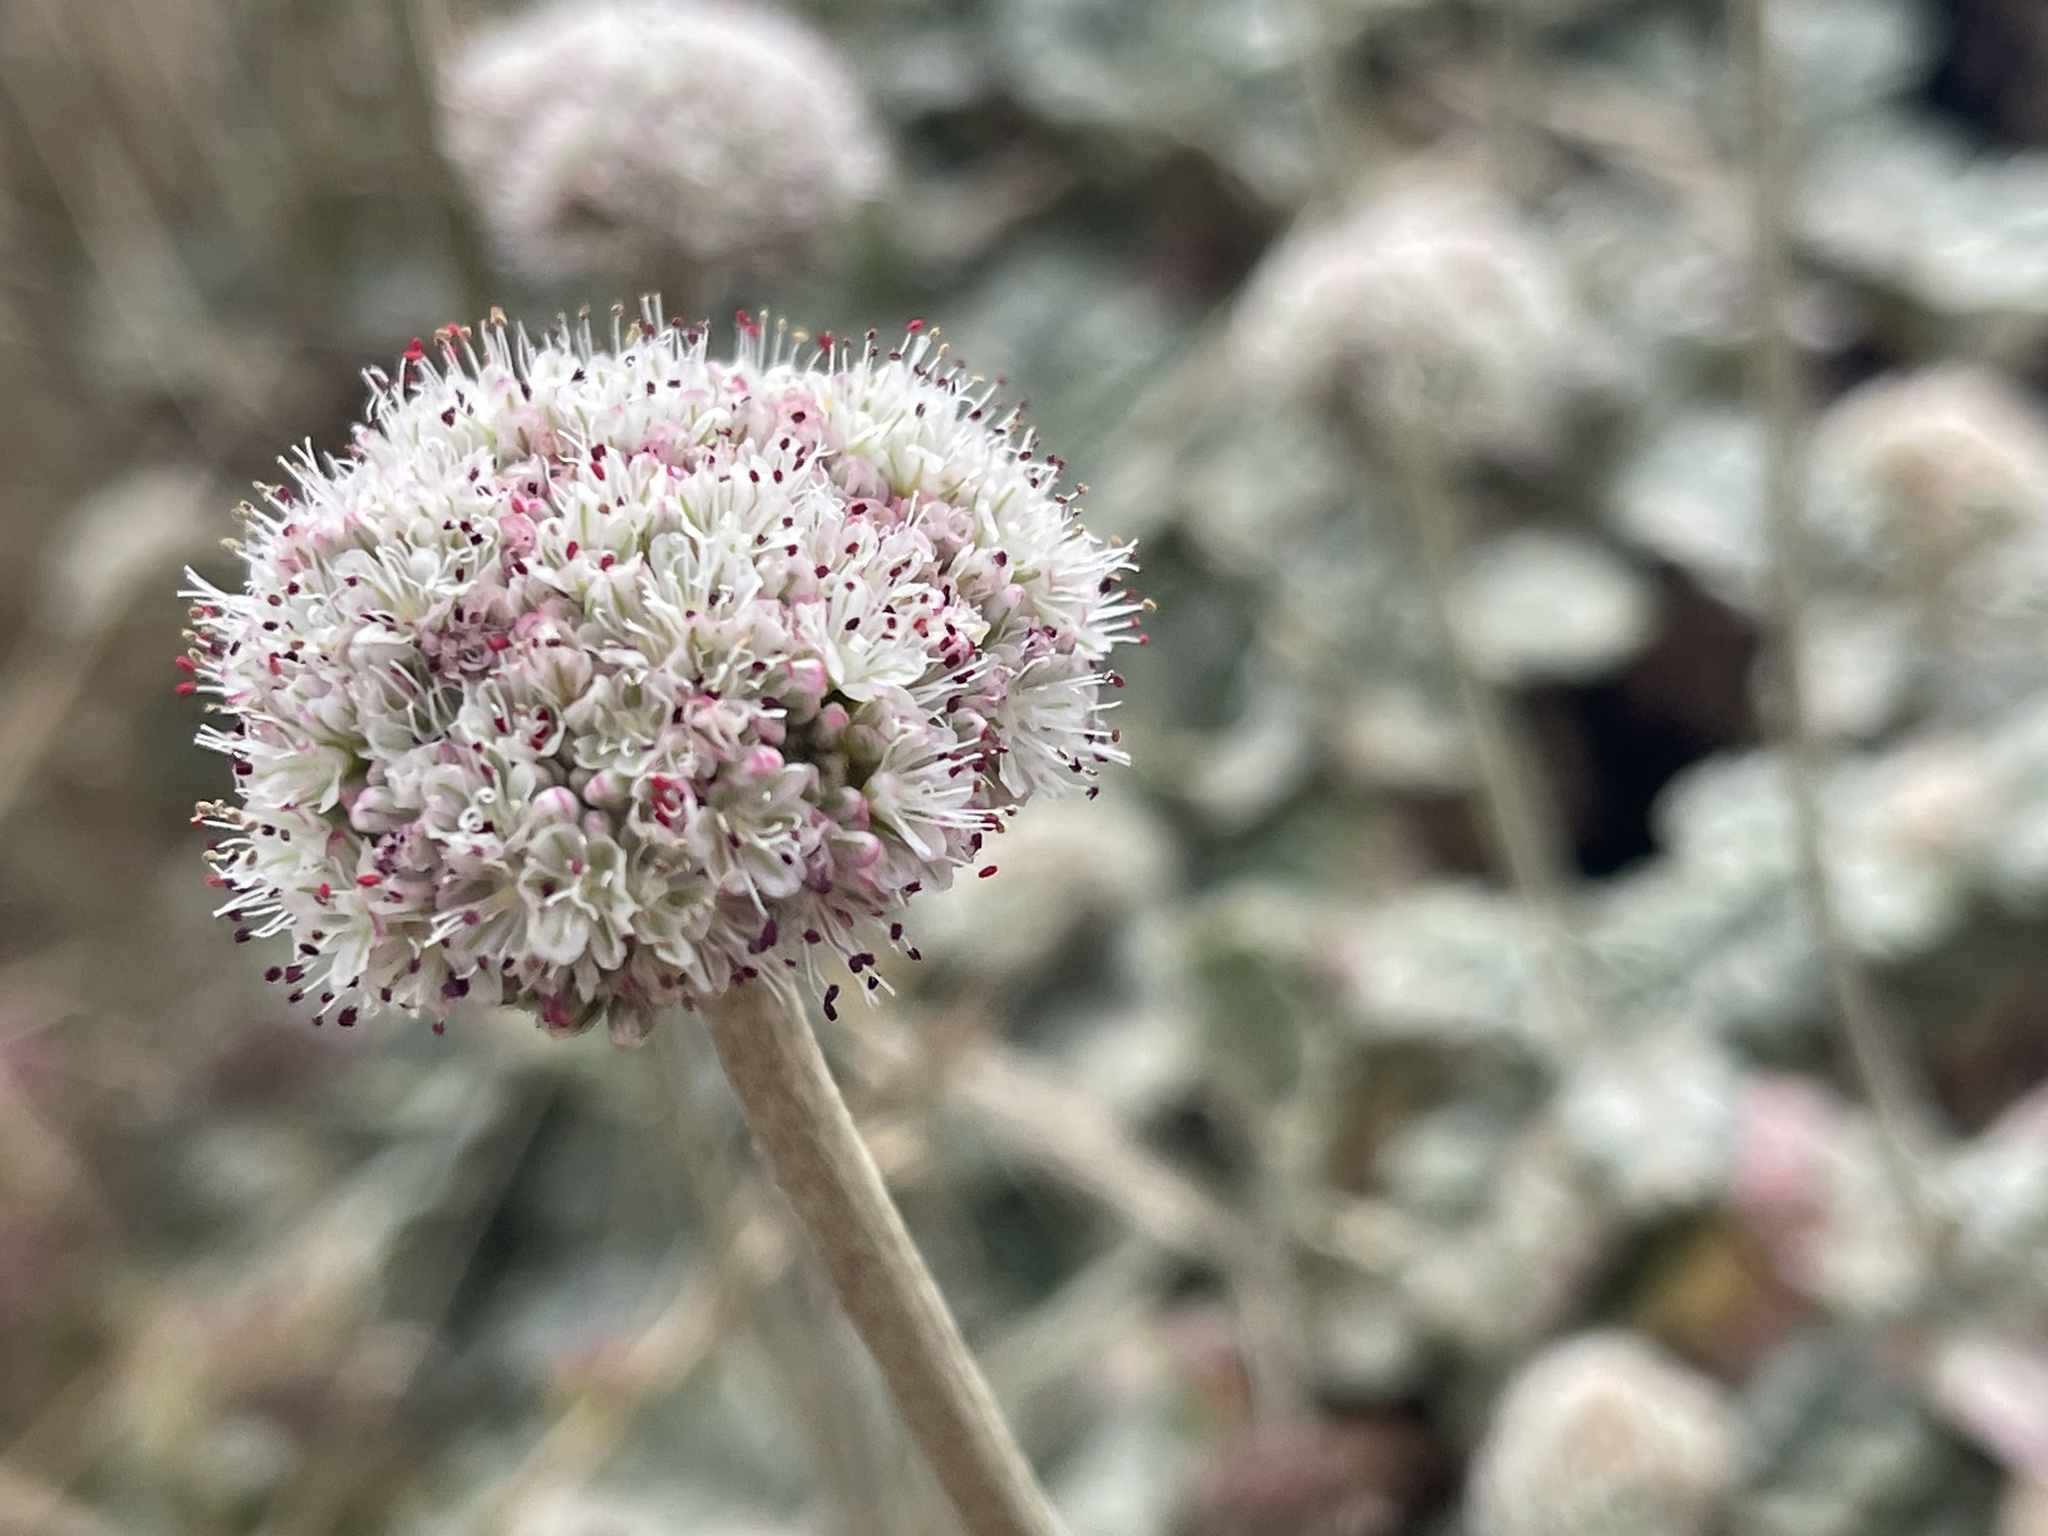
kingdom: Plantae
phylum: Tracheophyta
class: Magnoliopsida
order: Caryophyllales
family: Polygonaceae
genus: Eriogonum
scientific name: Eriogonum latifolium
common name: Seaside wild buckwheat
